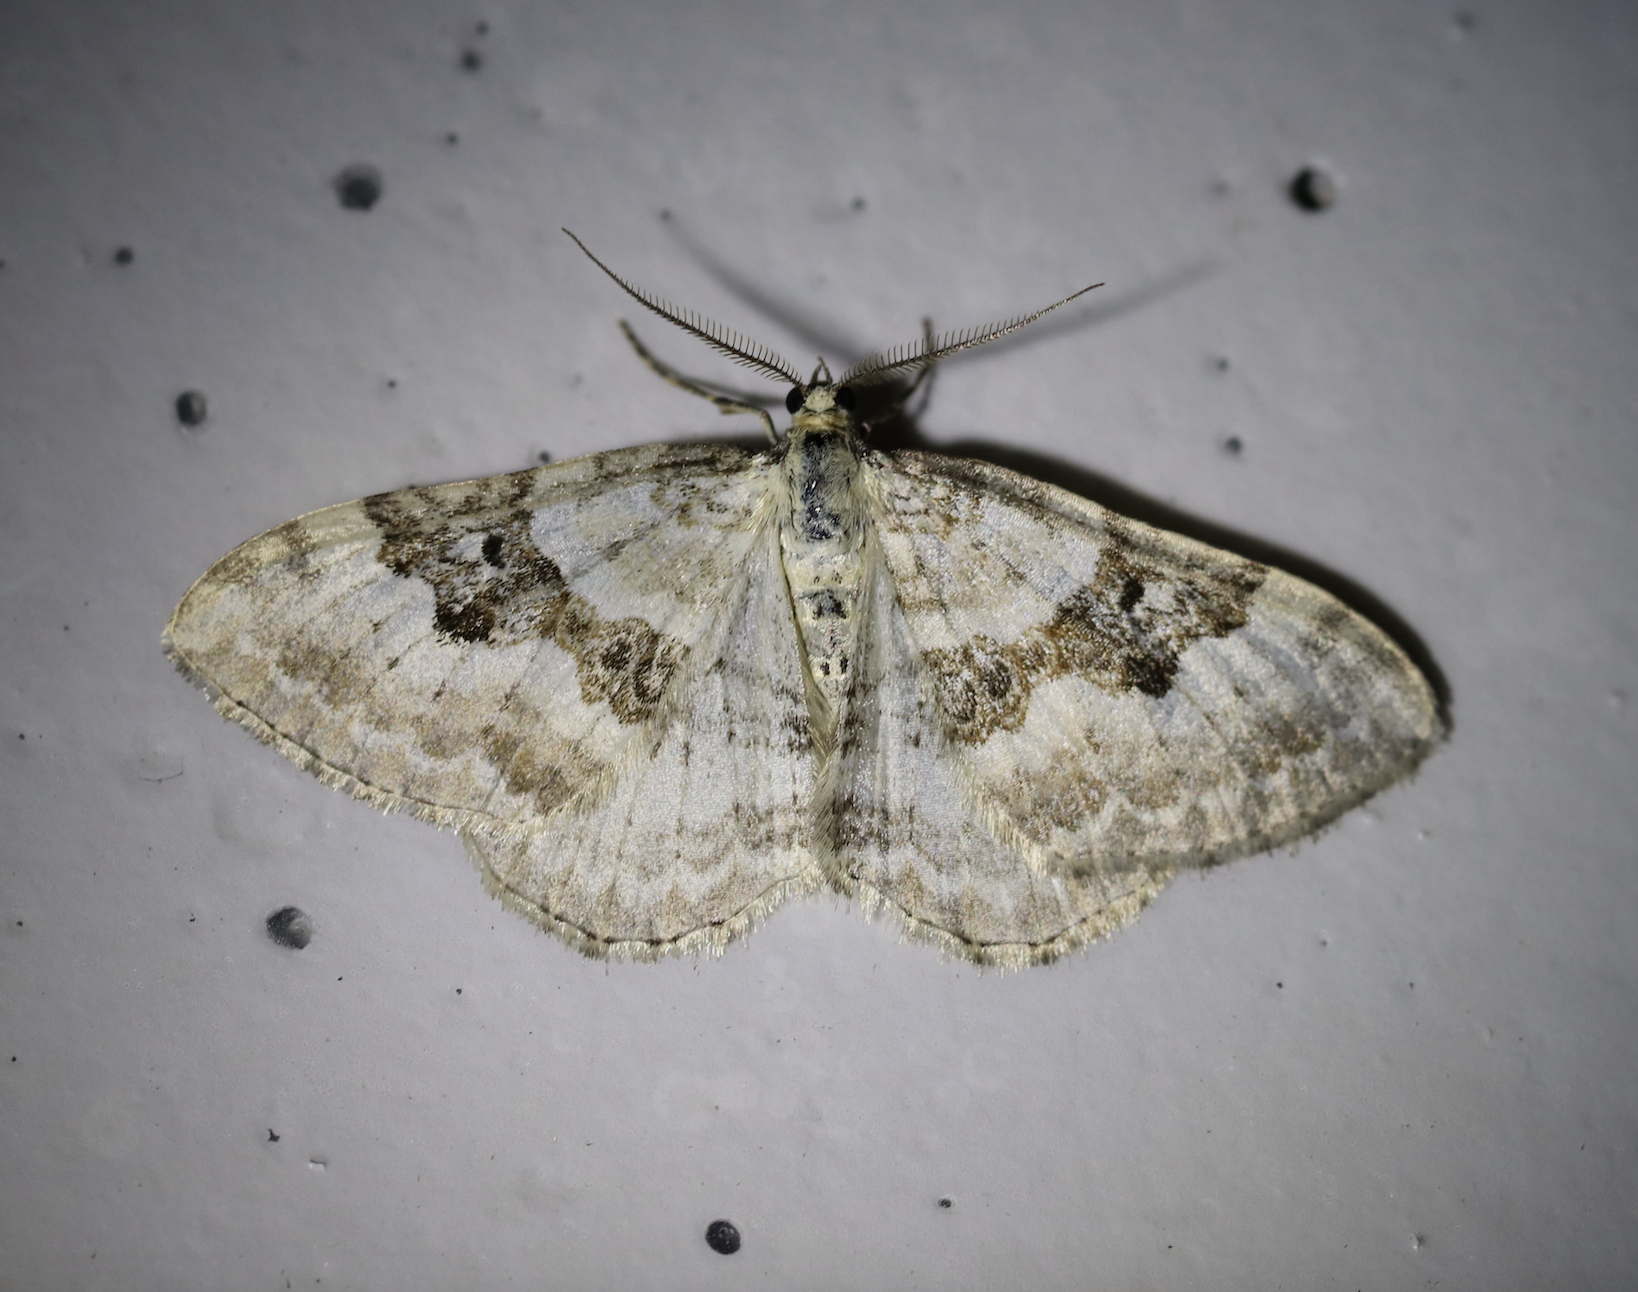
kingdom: Animalia
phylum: Arthropoda
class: Insecta
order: Lepidoptera
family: Geometridae
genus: Xanthorhoe
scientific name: Xanthorhoe montanata
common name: Silver-ground carpet
